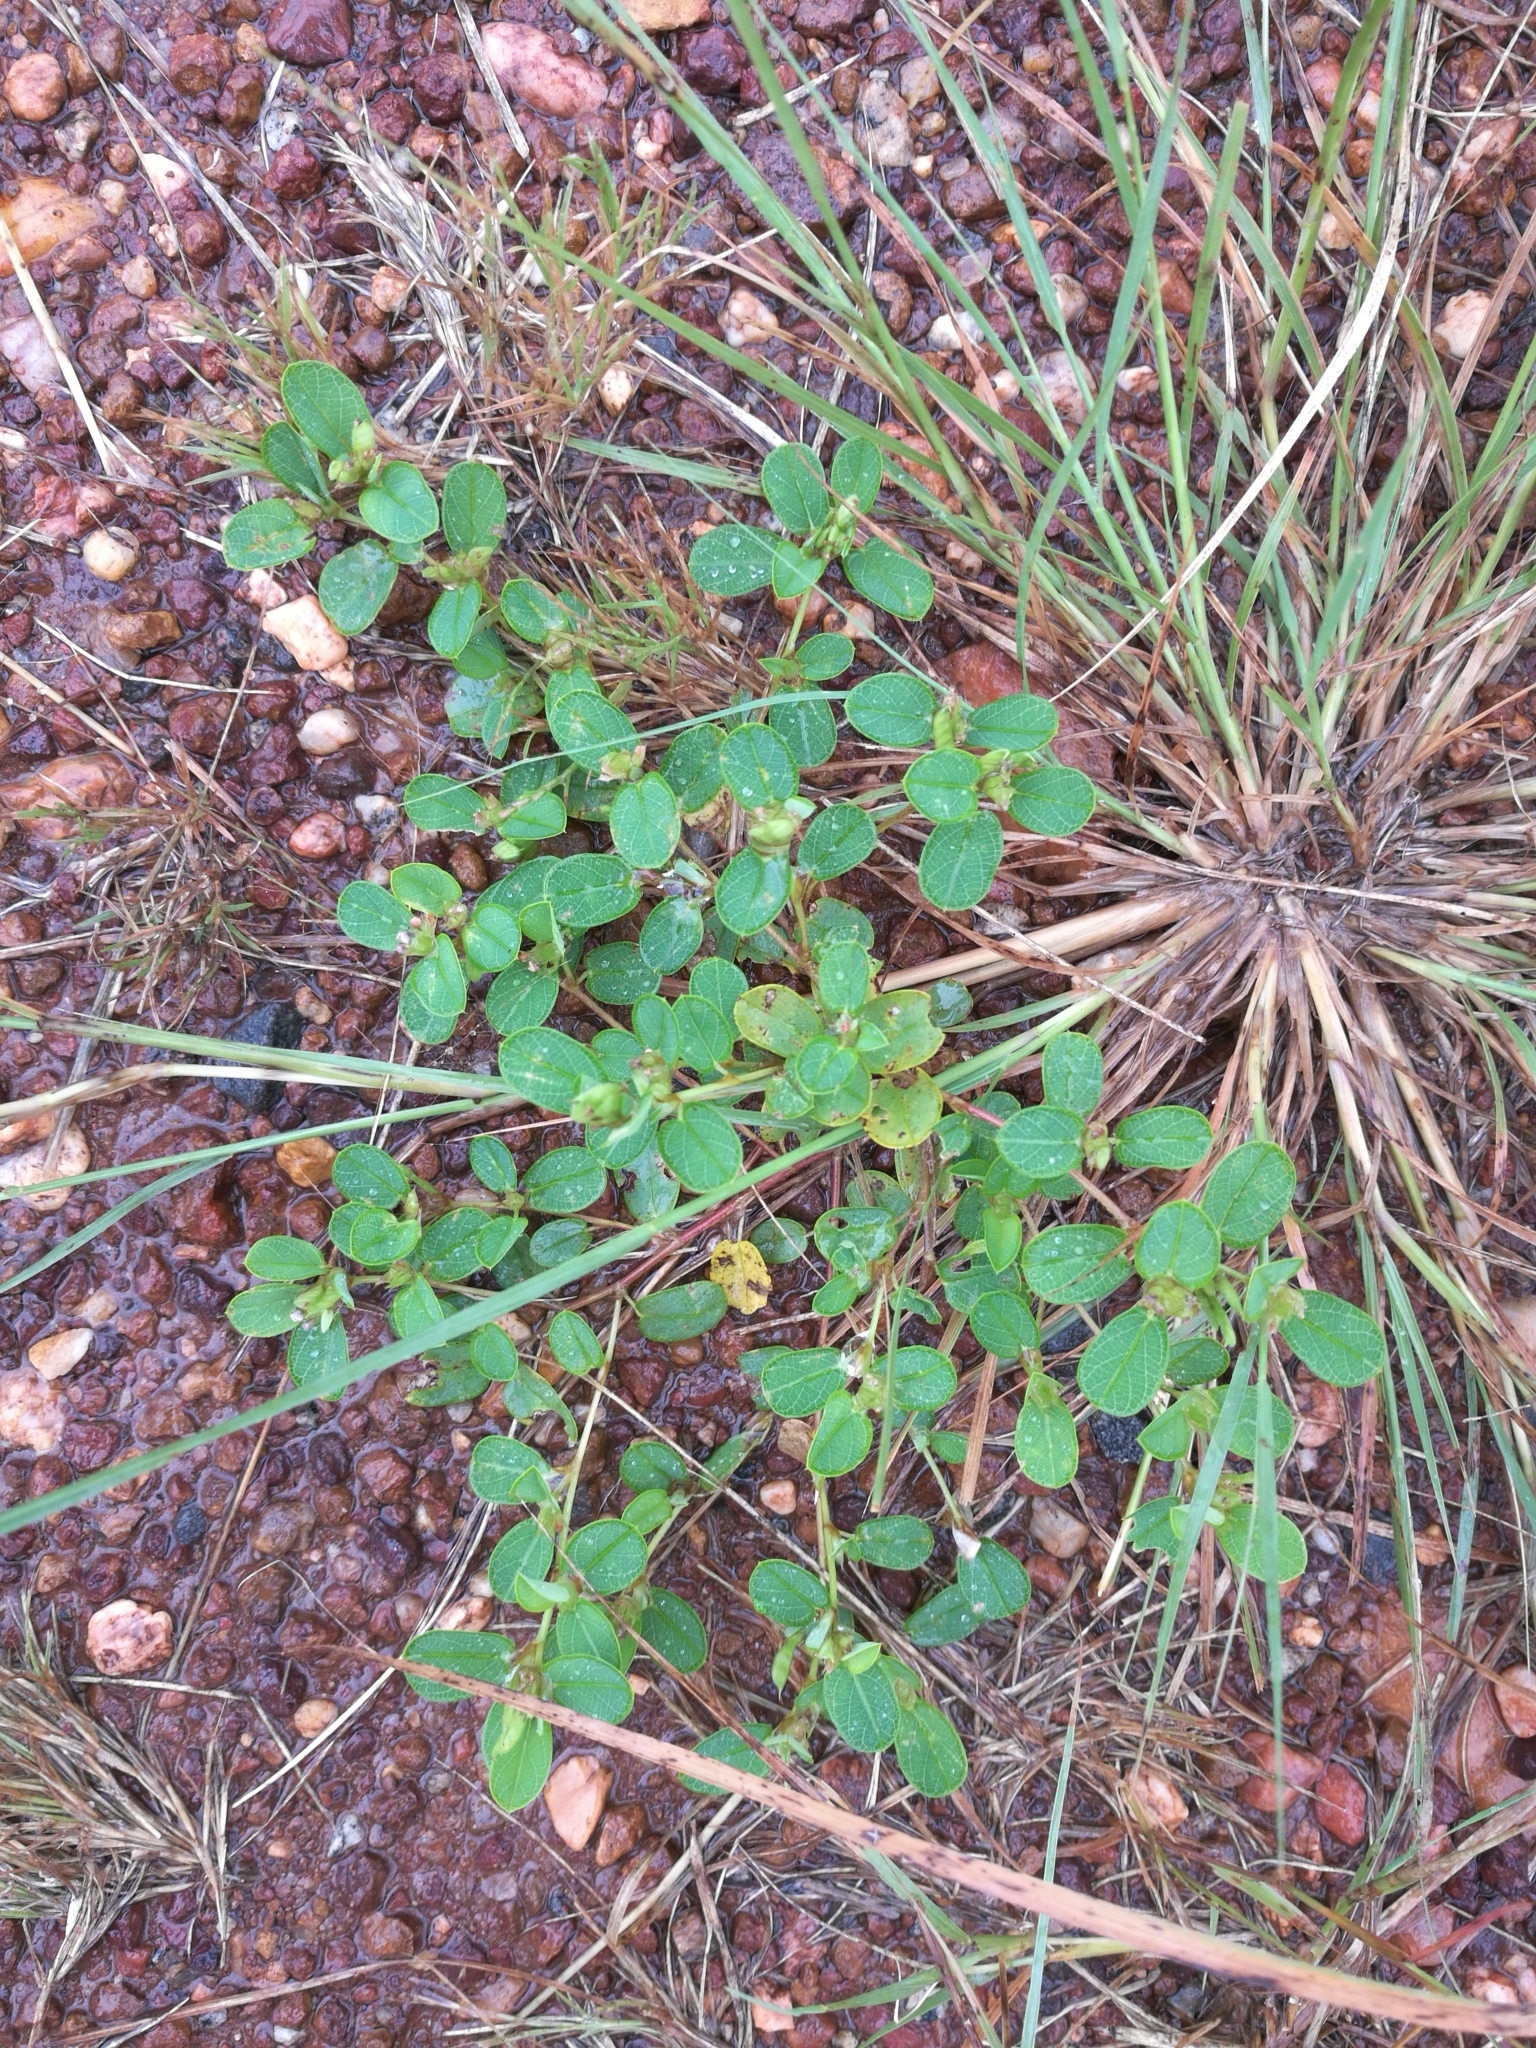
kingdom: Plantae
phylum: Tracheophyta
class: Magnoliopsida
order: Fabales
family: Fabaceae
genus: Melliniella
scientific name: Melliniella micrantha
